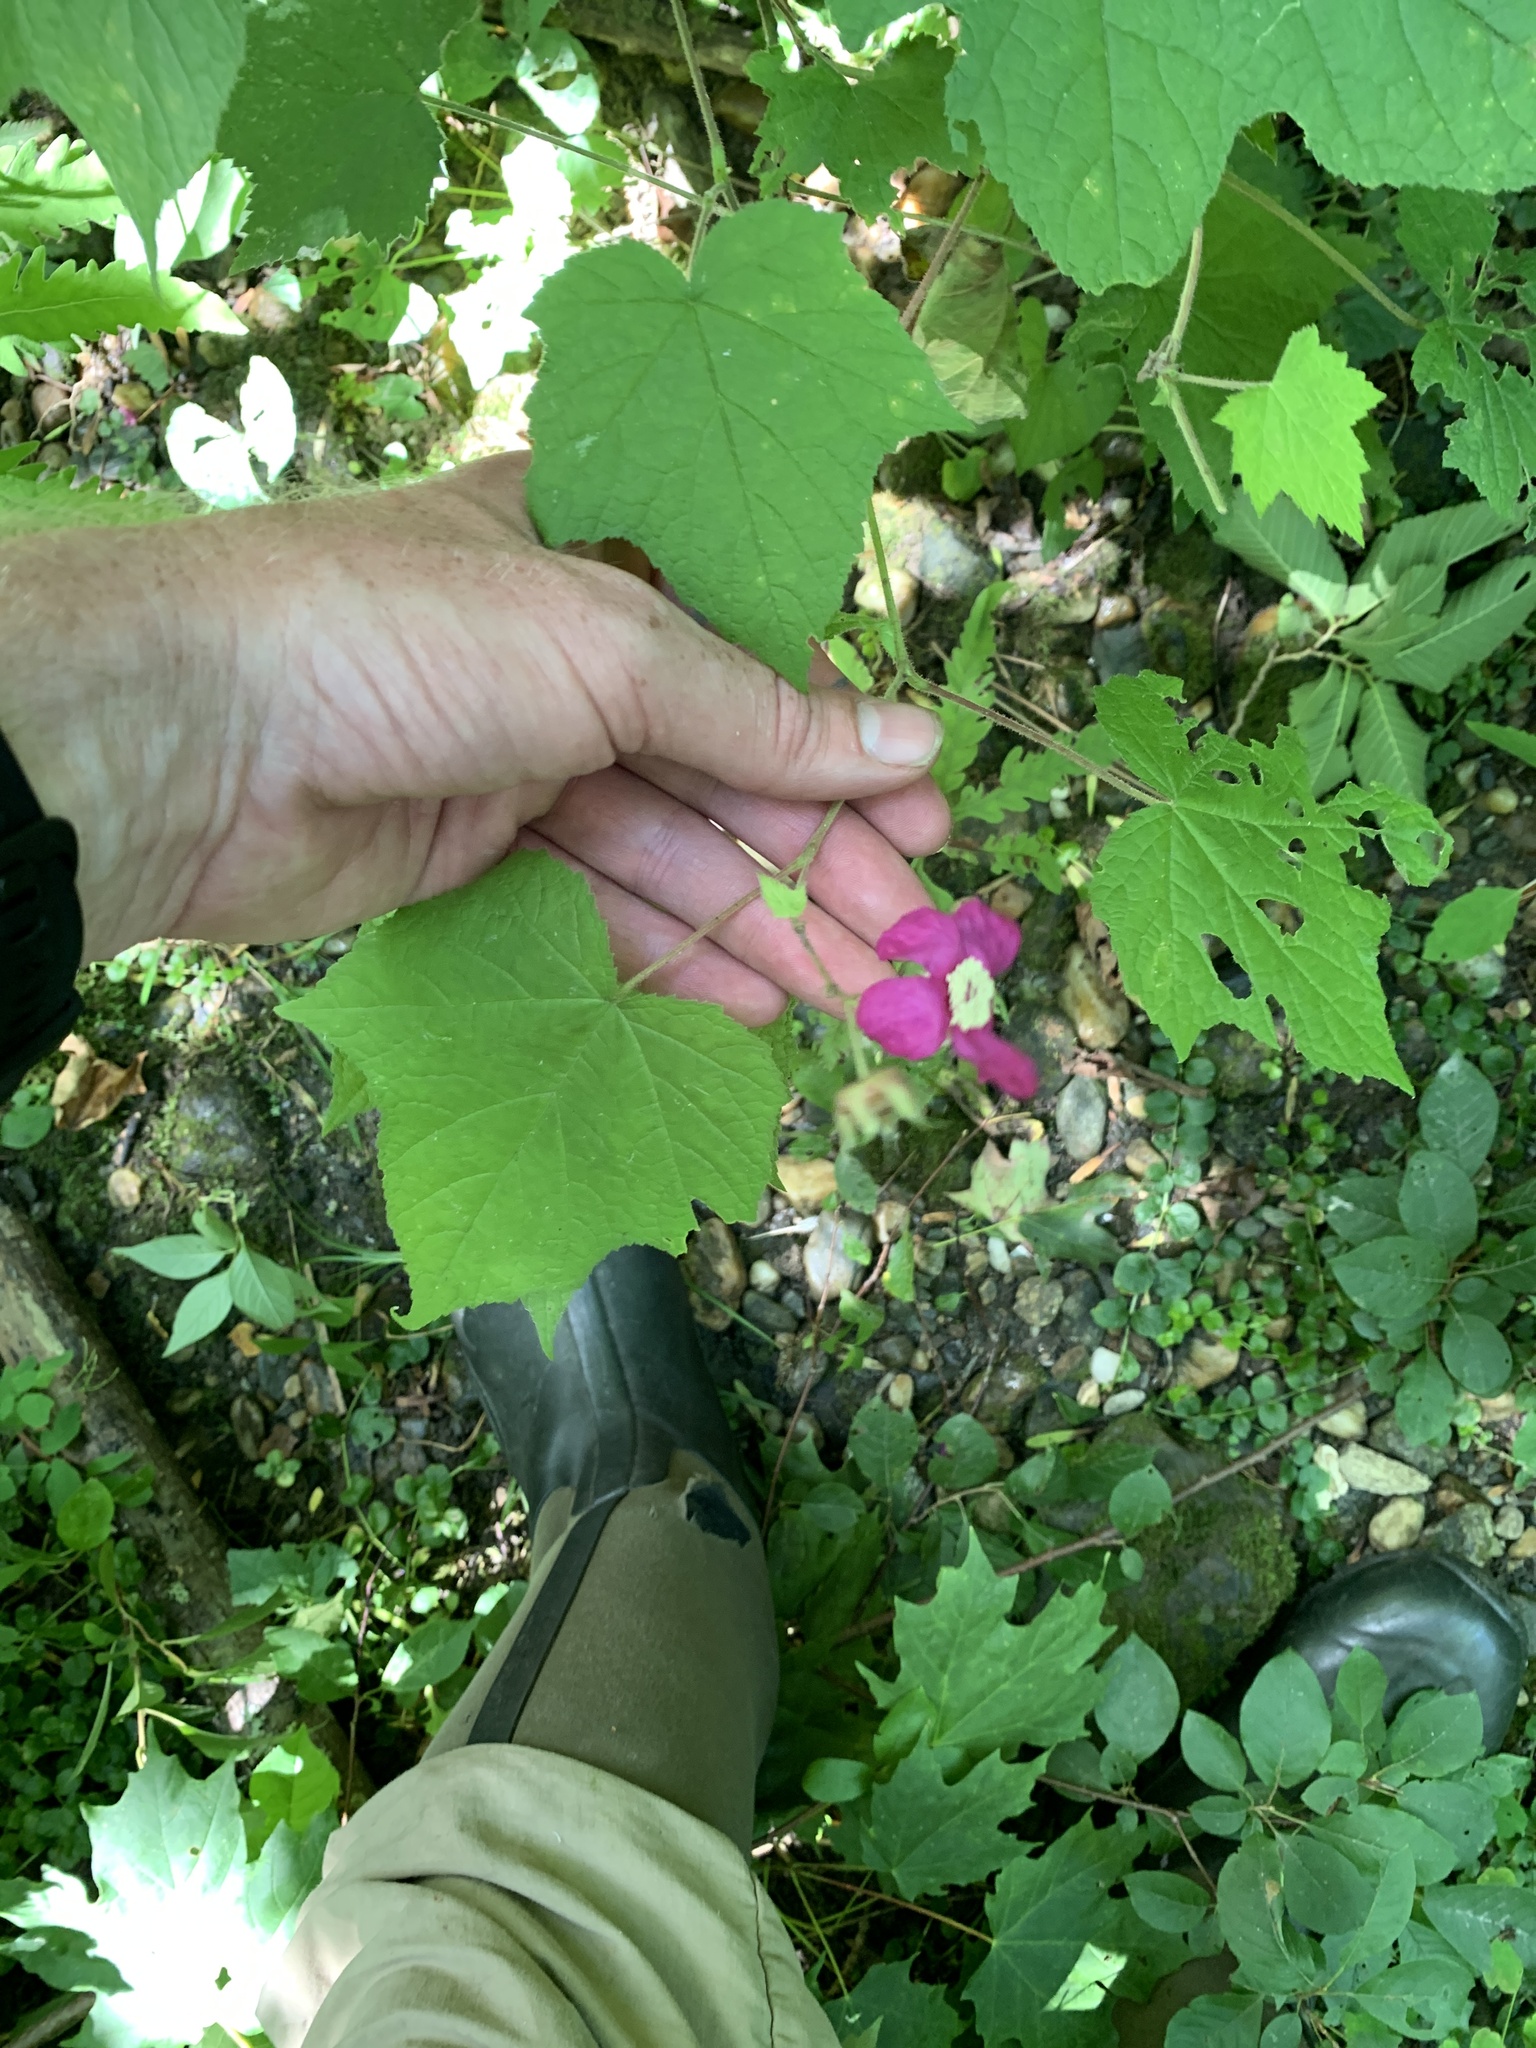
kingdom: Plantae
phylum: Tracheophyta
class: Magnoliopsida
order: Rosales
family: Rosaceae
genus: Rubus
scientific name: Rubus odoratus
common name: Purple-flowered raspberry
